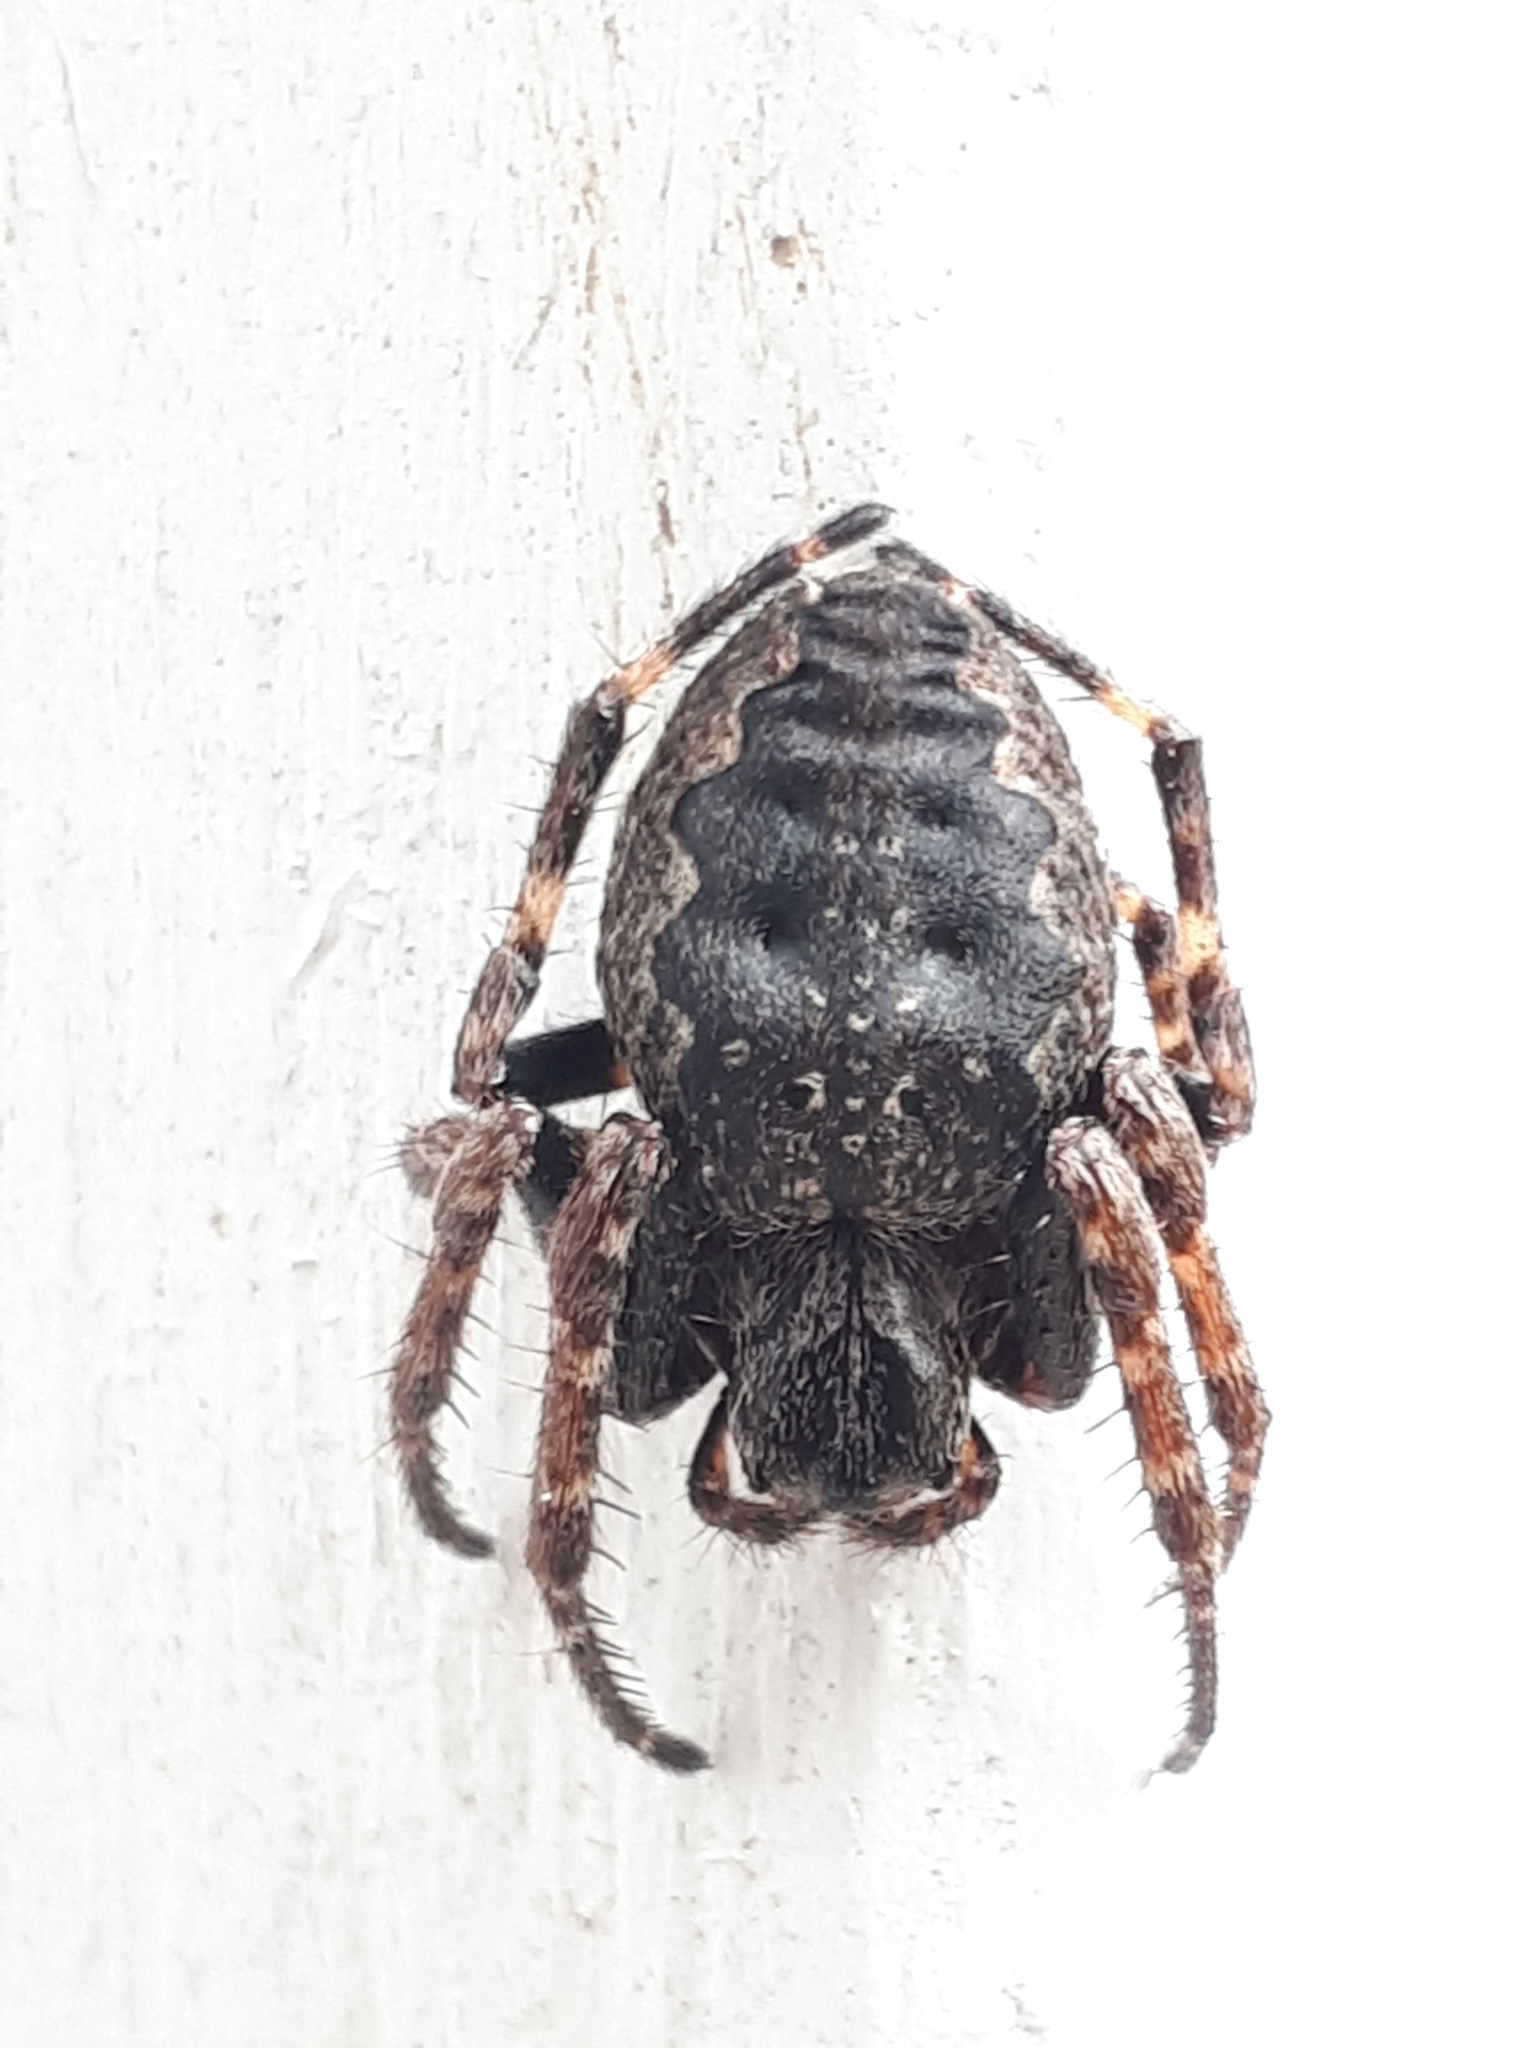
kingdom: Animalia
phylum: Arthropoda
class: Arachnida
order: Araneae
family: Araneidae
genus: Nuctenea
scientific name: Nuctenea umbratica
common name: Toad spider
